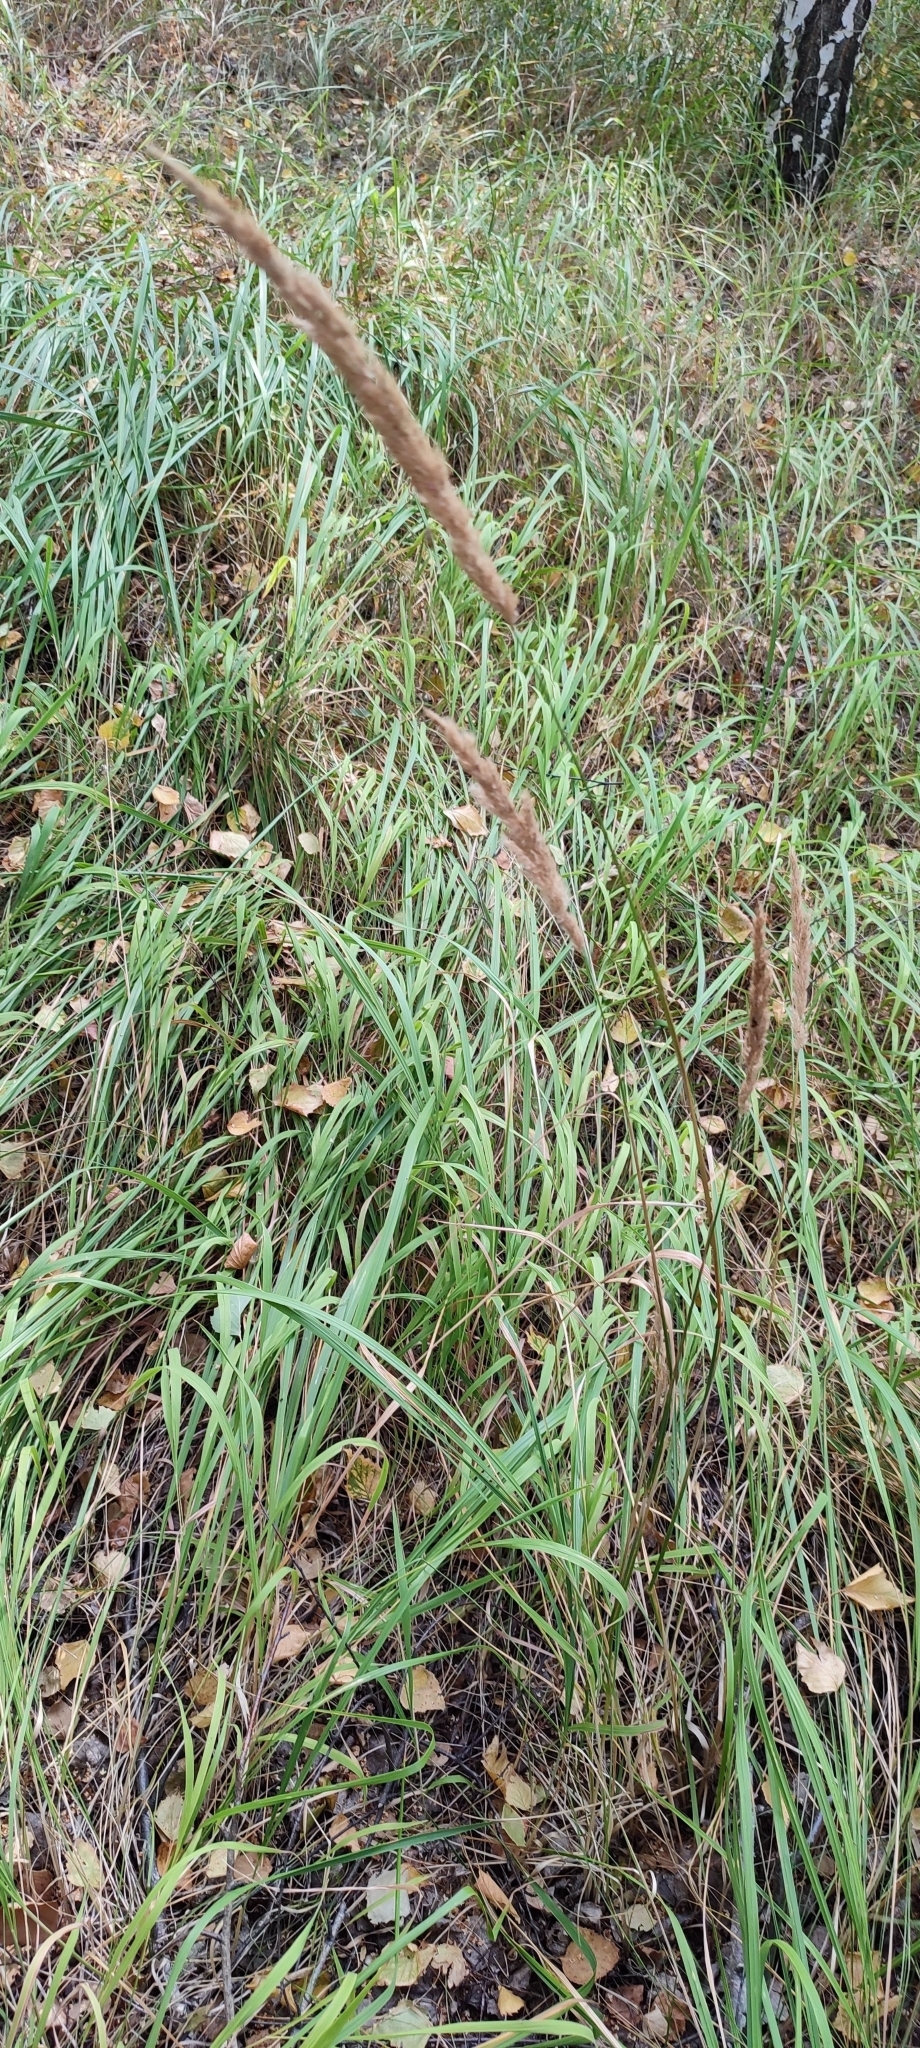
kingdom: Plantae
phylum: Tracheophyta
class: Liliopsida
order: Poales
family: Poaceae
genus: Calamagrostis
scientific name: Calamagrostis epigejos
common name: Wood small-reed
